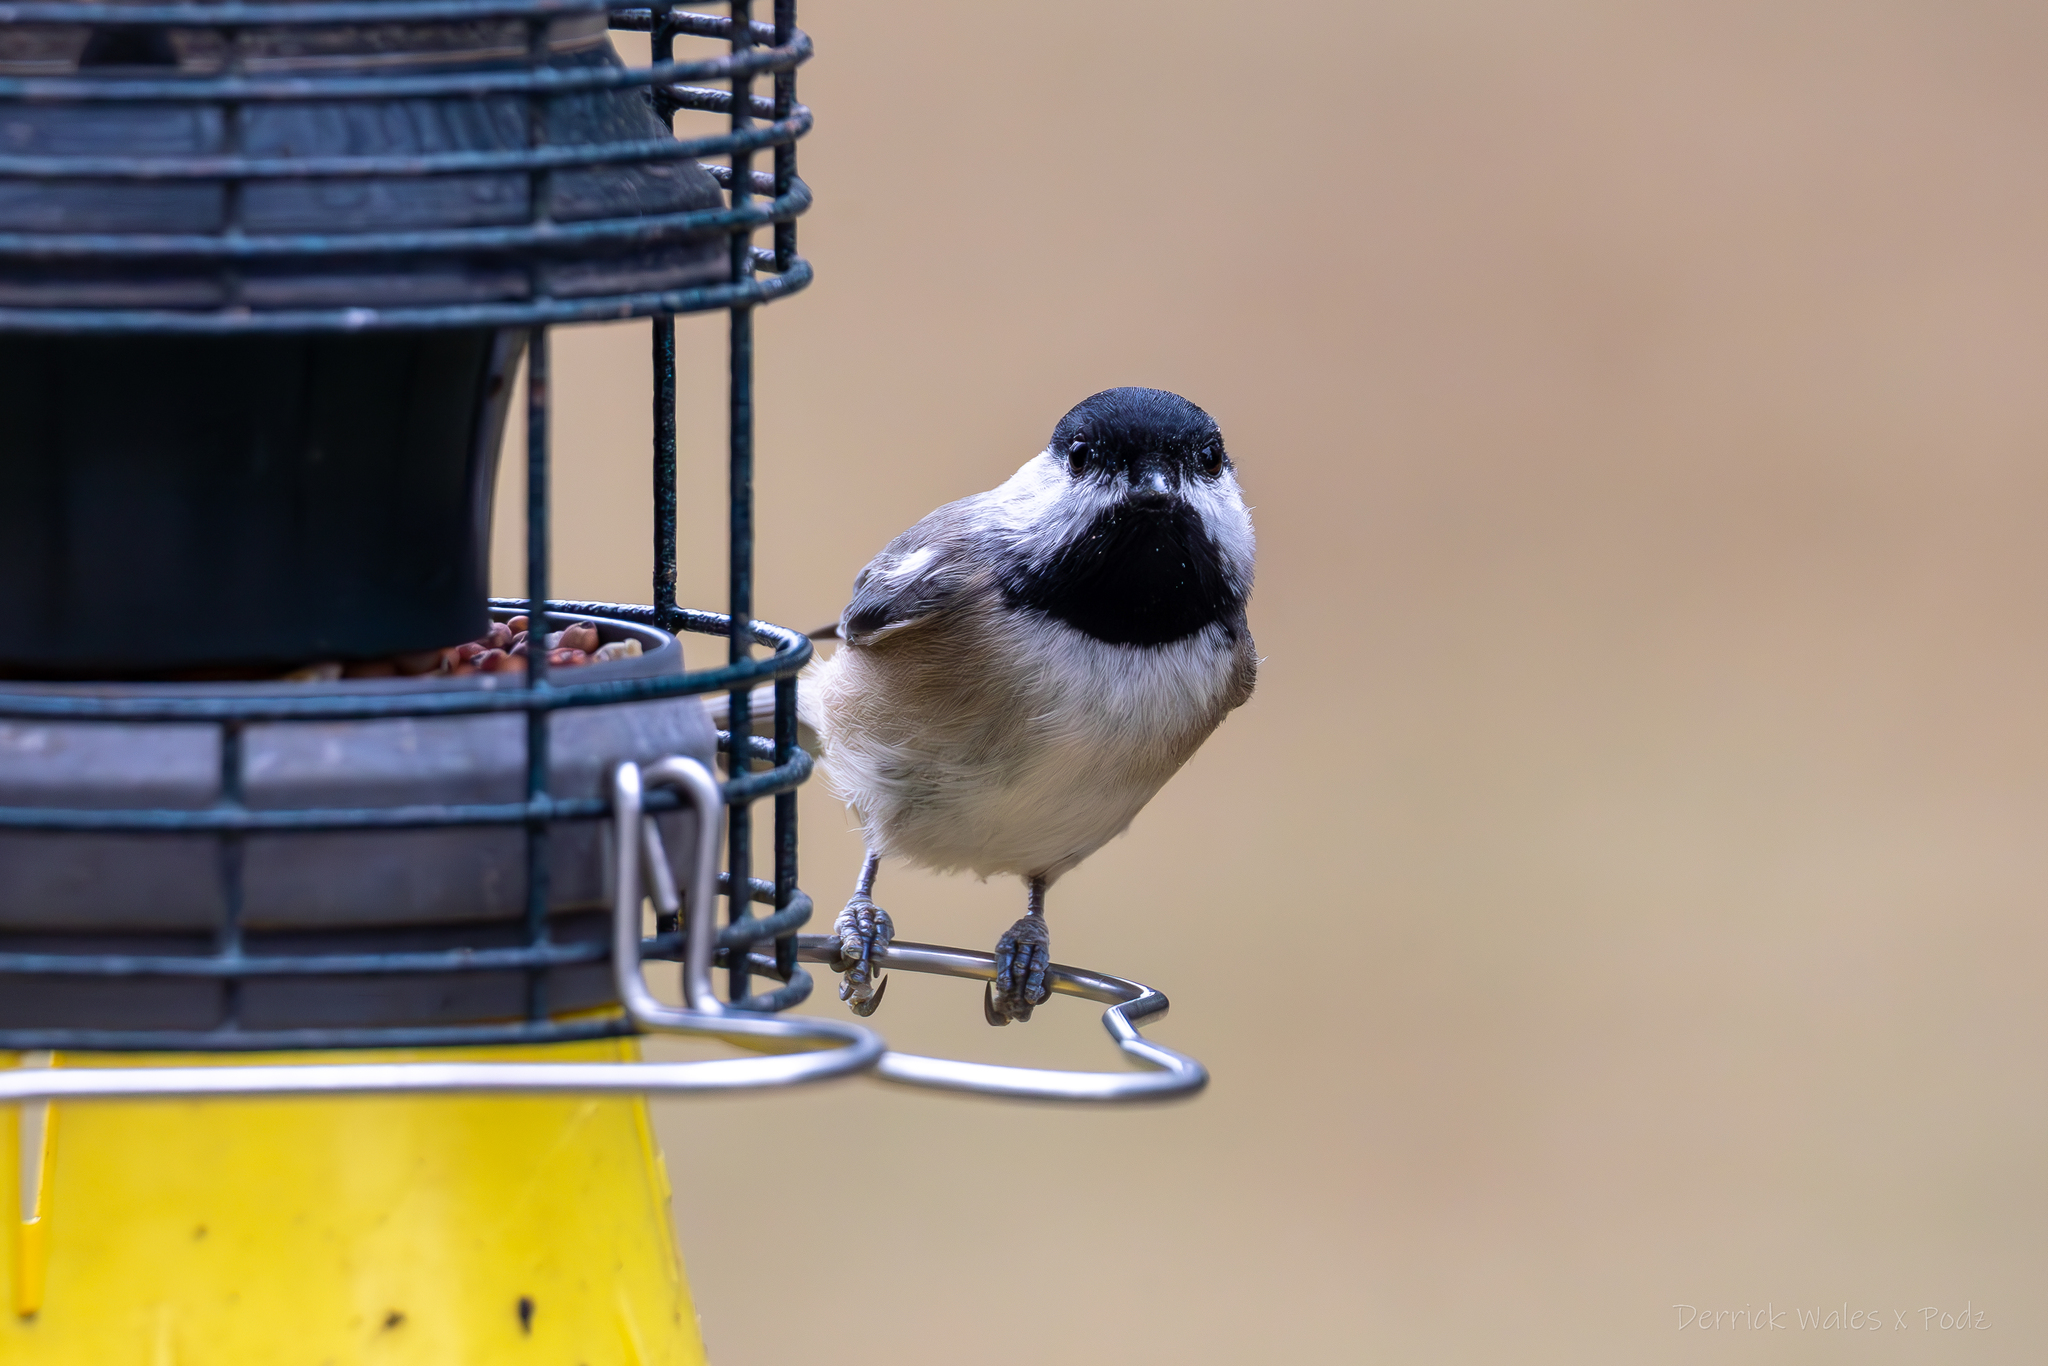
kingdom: Animalia
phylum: Chordata
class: Aves
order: Passeriformes
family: Paridae
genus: Poecile
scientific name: Poecile carolinensis
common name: Carolina chickadee
